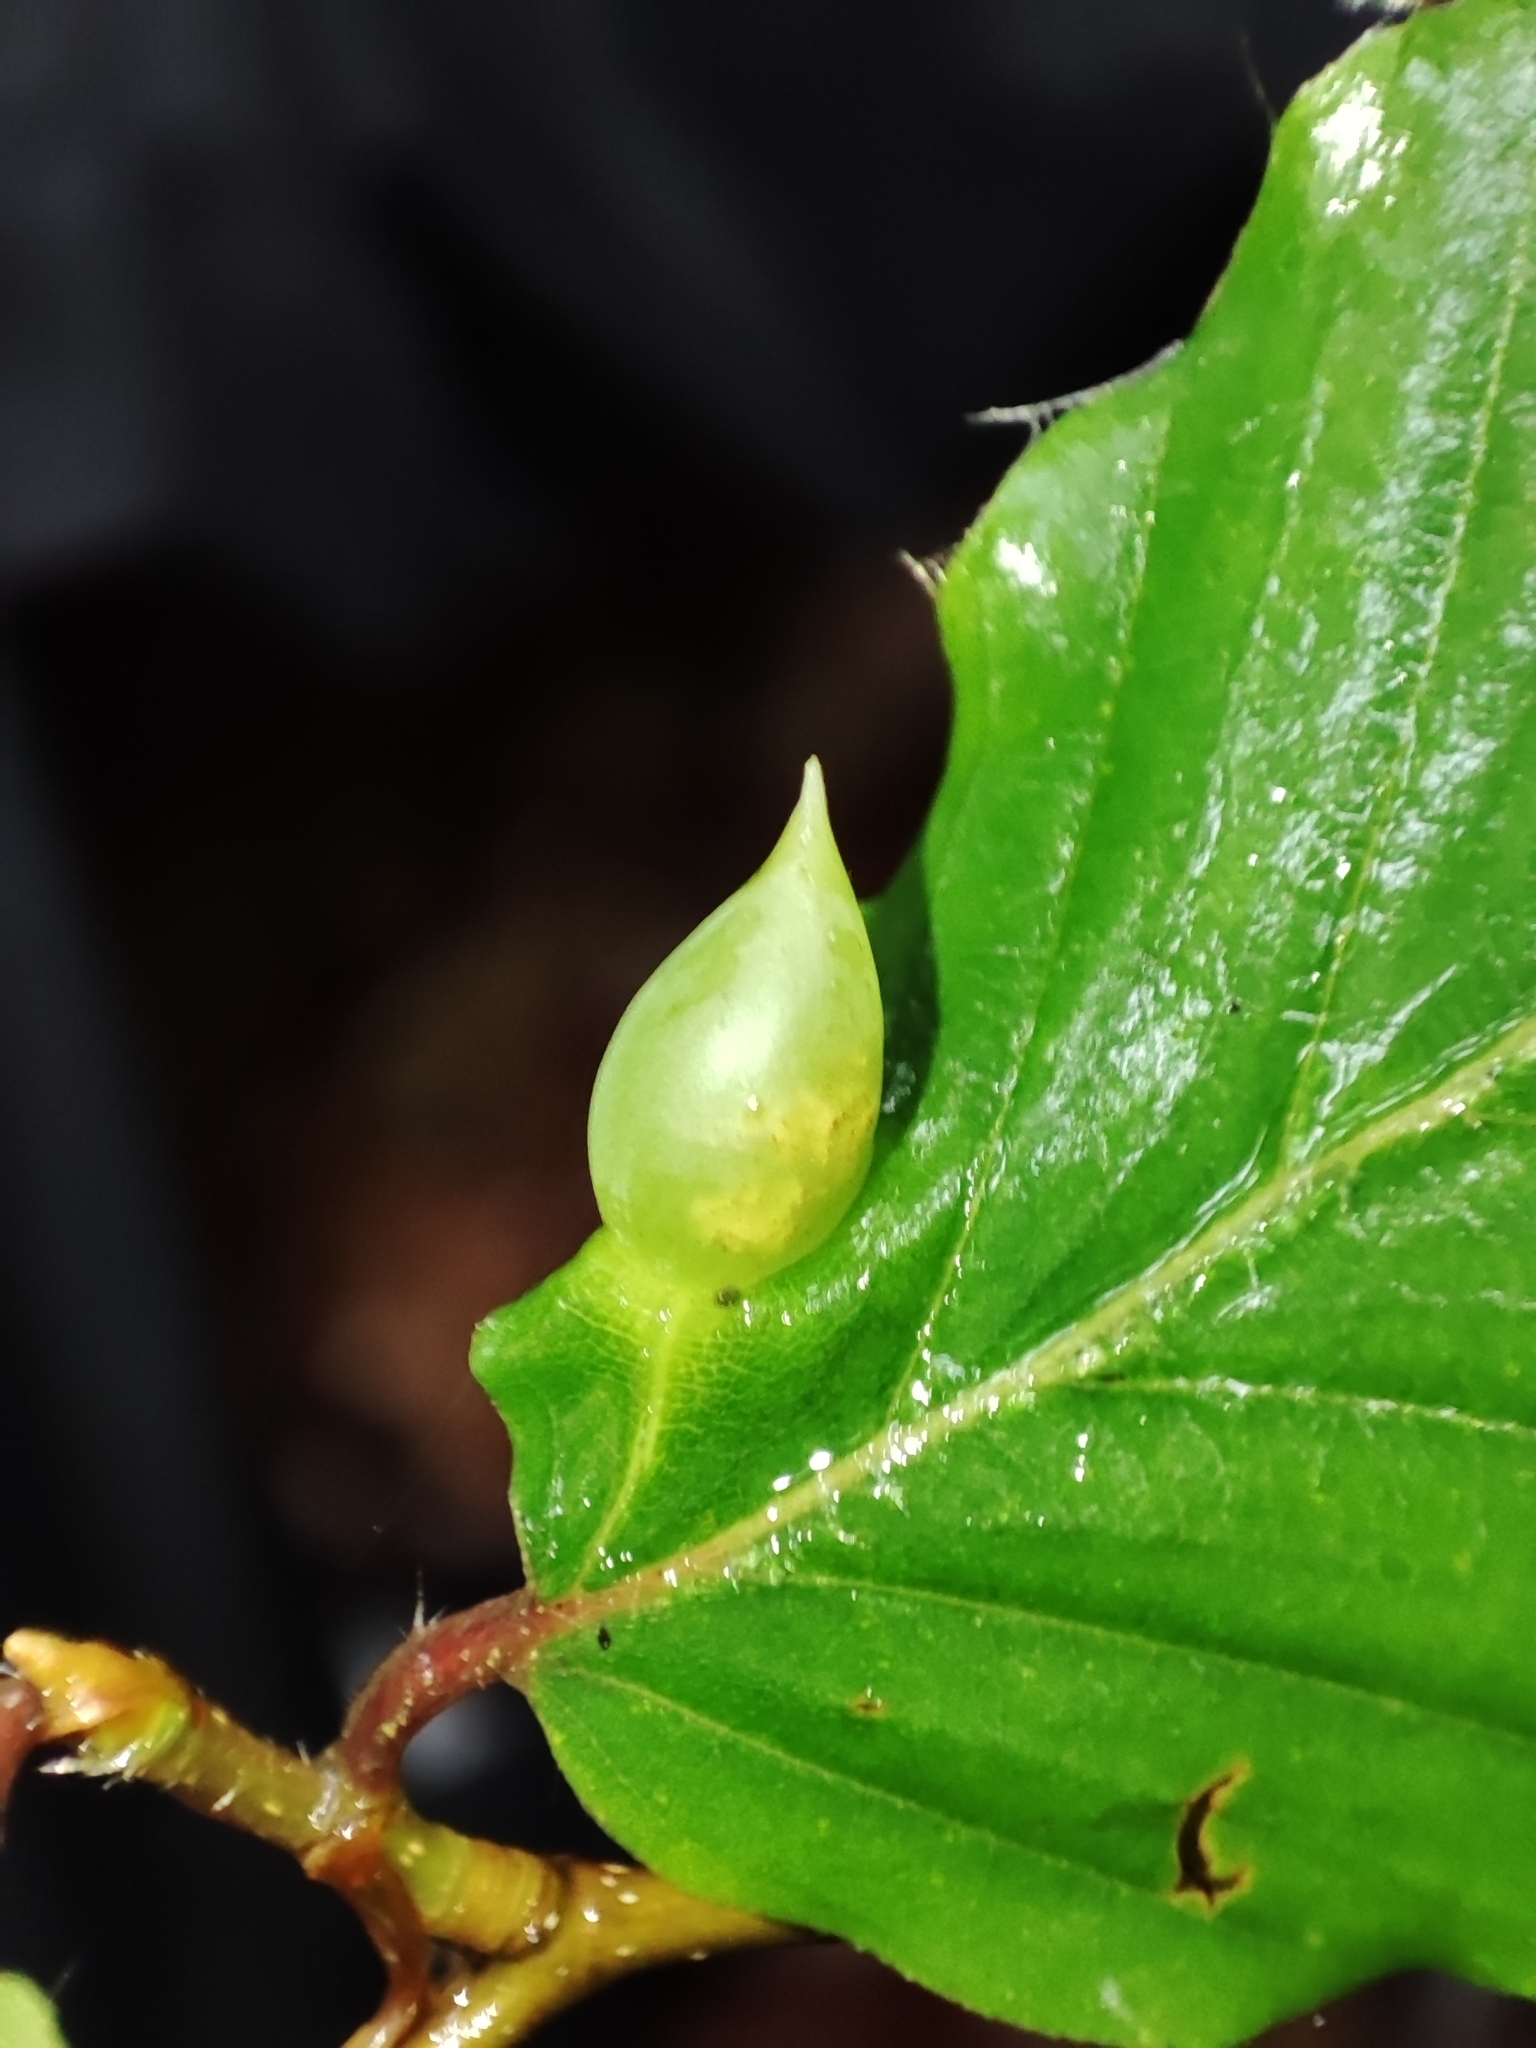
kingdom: Animalia
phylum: Arthropoda
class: Insecta
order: Diptera
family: Cecidomyiidae
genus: Mikiola
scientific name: Mikiola fagi
